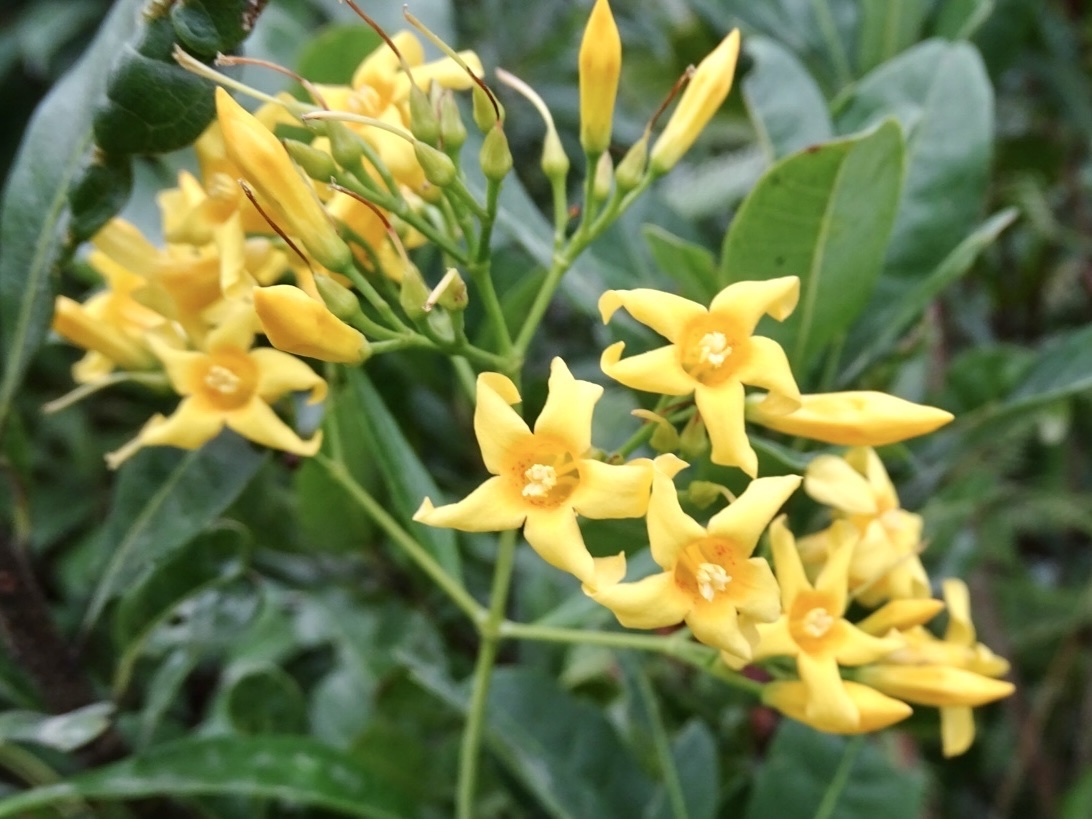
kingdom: Plantae
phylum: Tracheophyta
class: Magnoliopsida
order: Gentianales
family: Gelsemiaceae
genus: Gelsemium
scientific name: Gelsemium elegans
